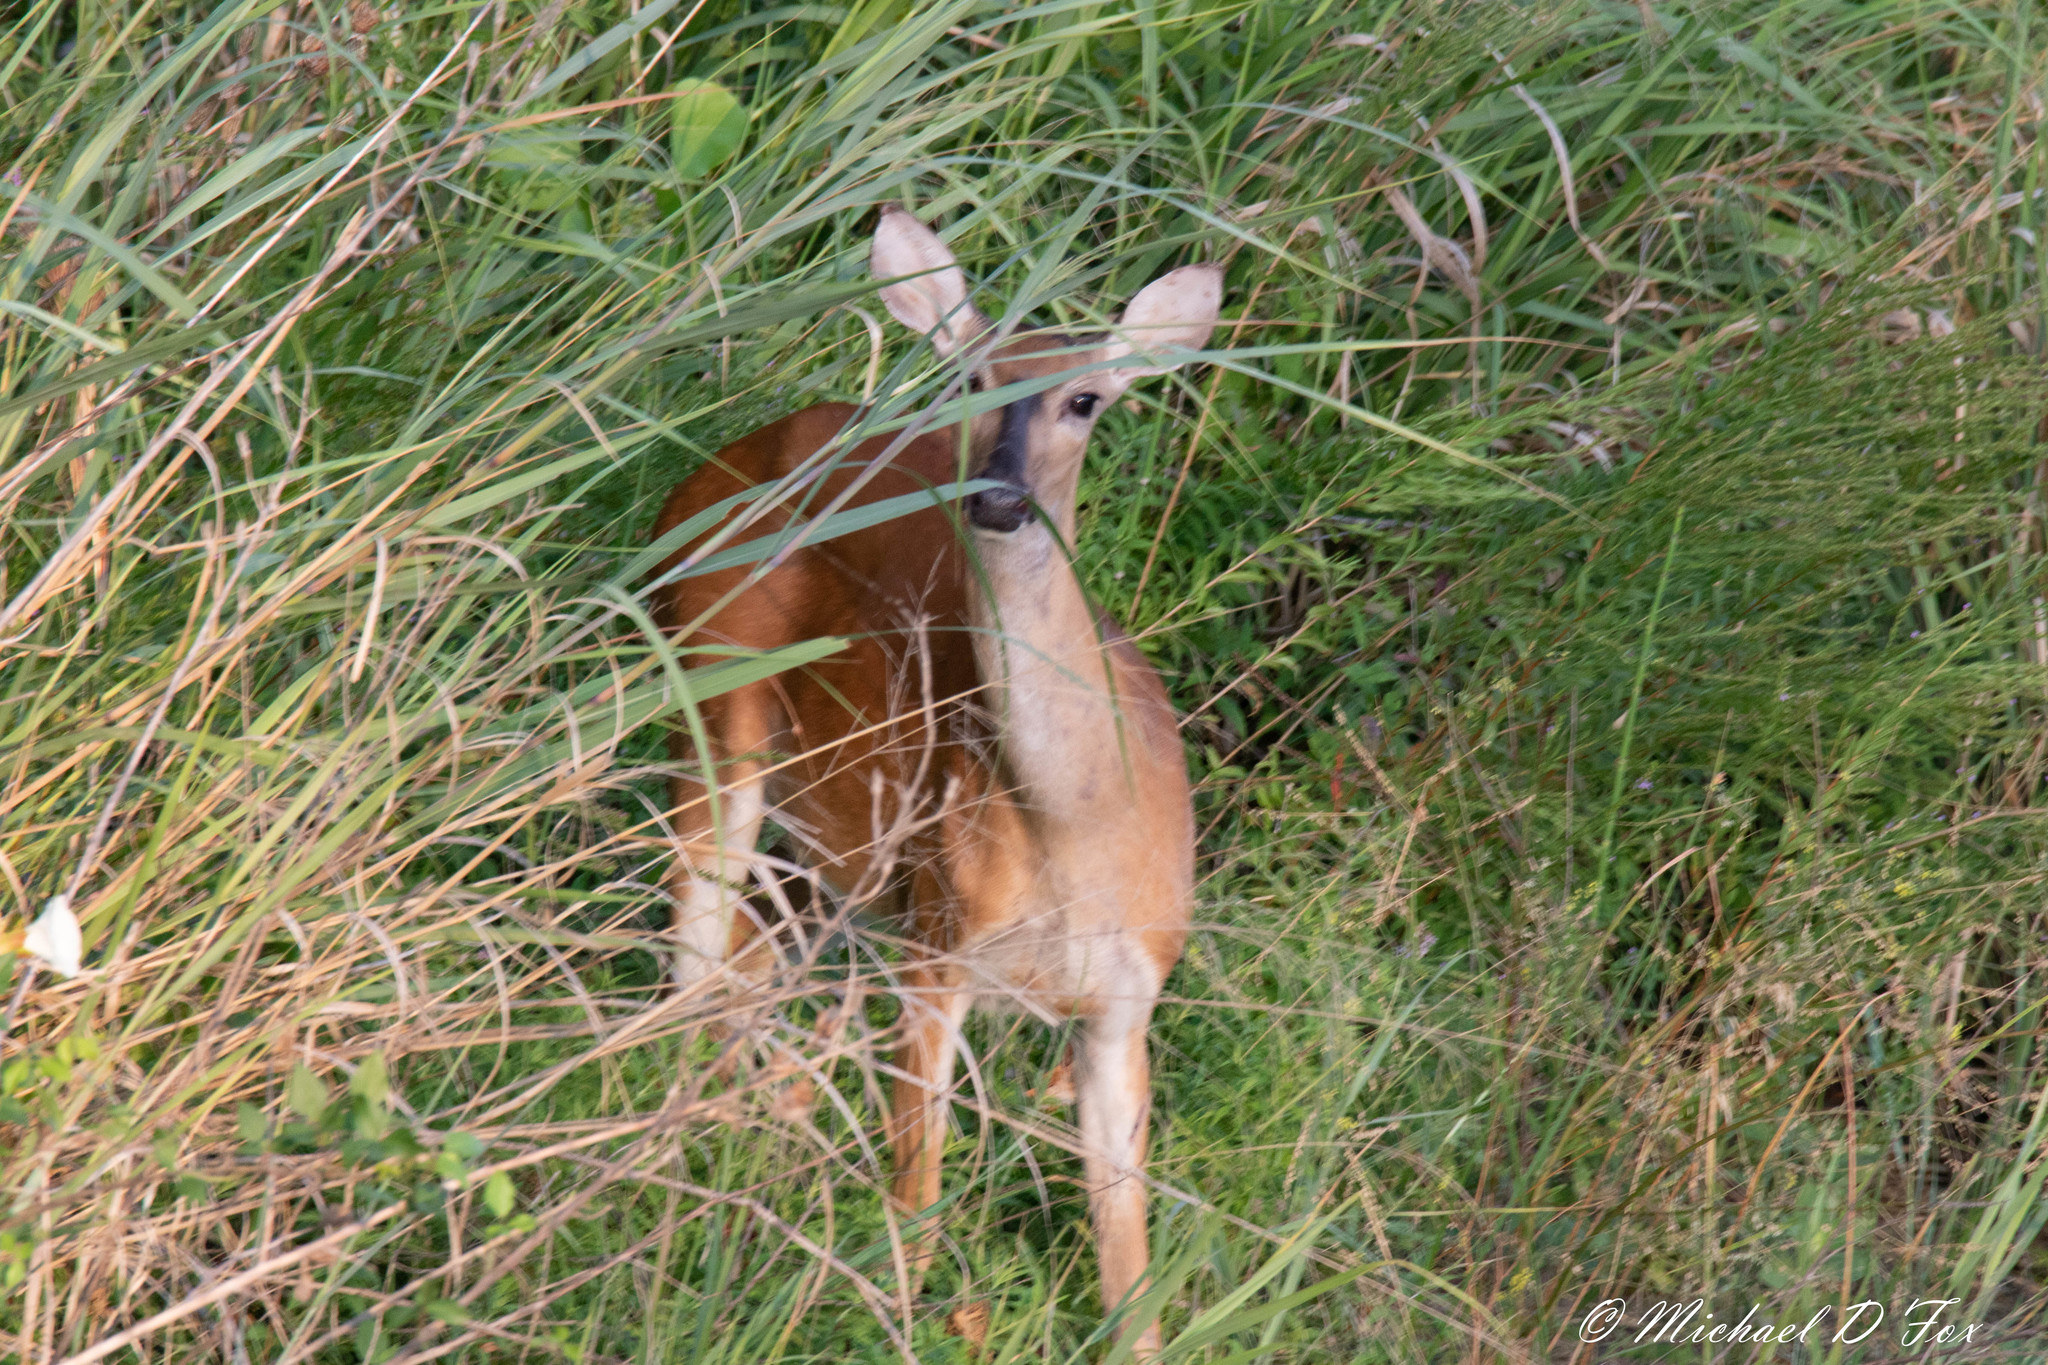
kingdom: Animalia
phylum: Chordata
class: Mammalia
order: Artiodactyla
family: Cervidae
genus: Odocoileus
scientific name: Odocoileus virginianus
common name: White-tailed deer
